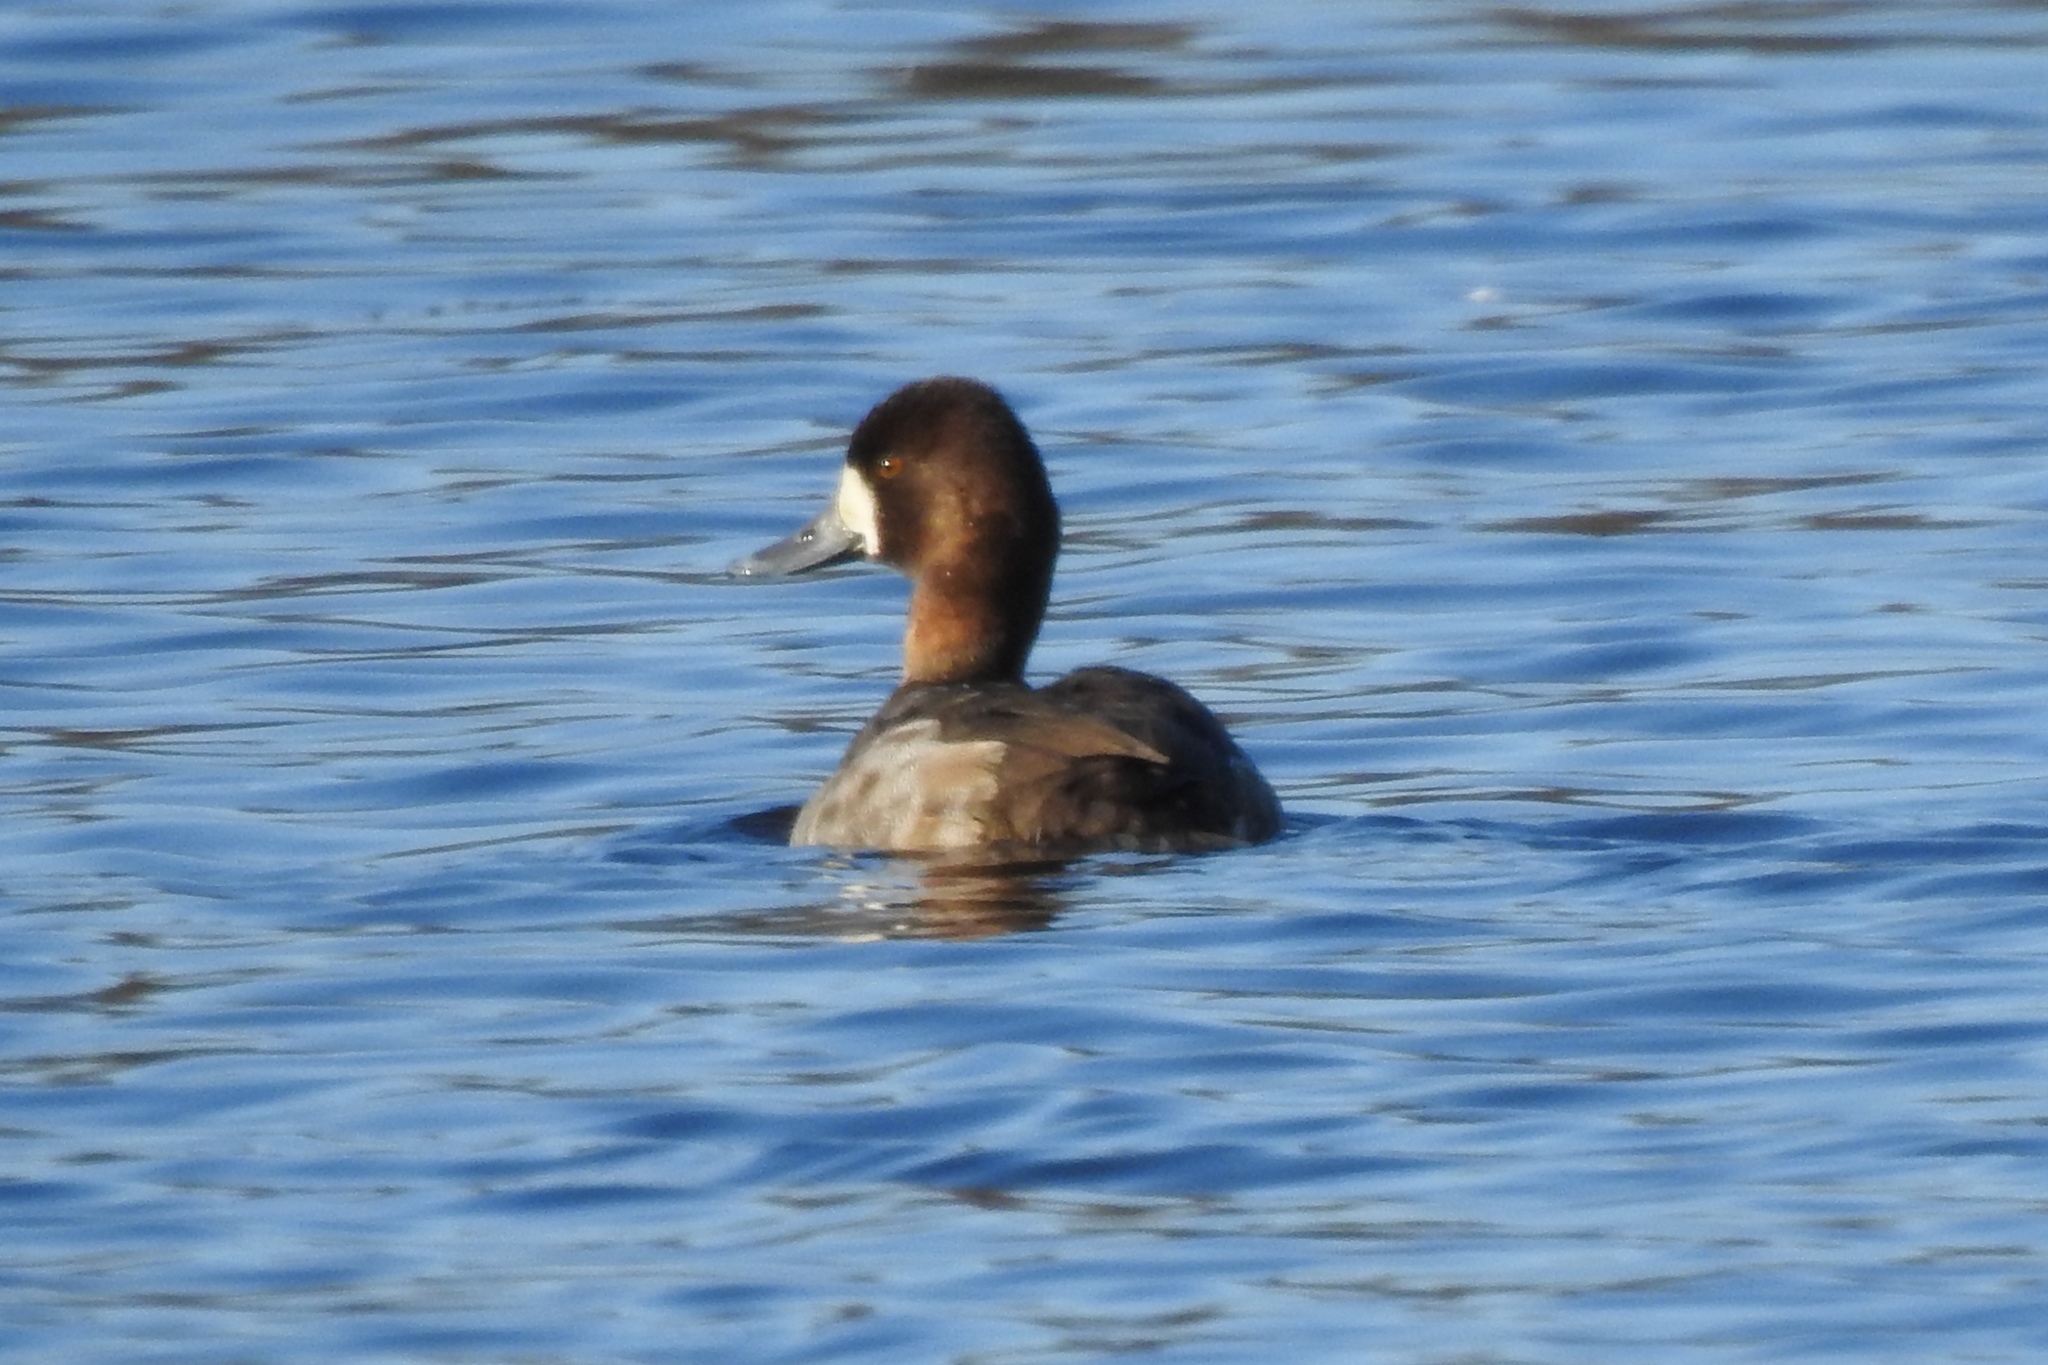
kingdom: Animalia
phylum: Chordata
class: Aves
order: Anseriformes
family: Anatidae
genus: Aythya
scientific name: Aythya affinis
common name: Lesser scaup
